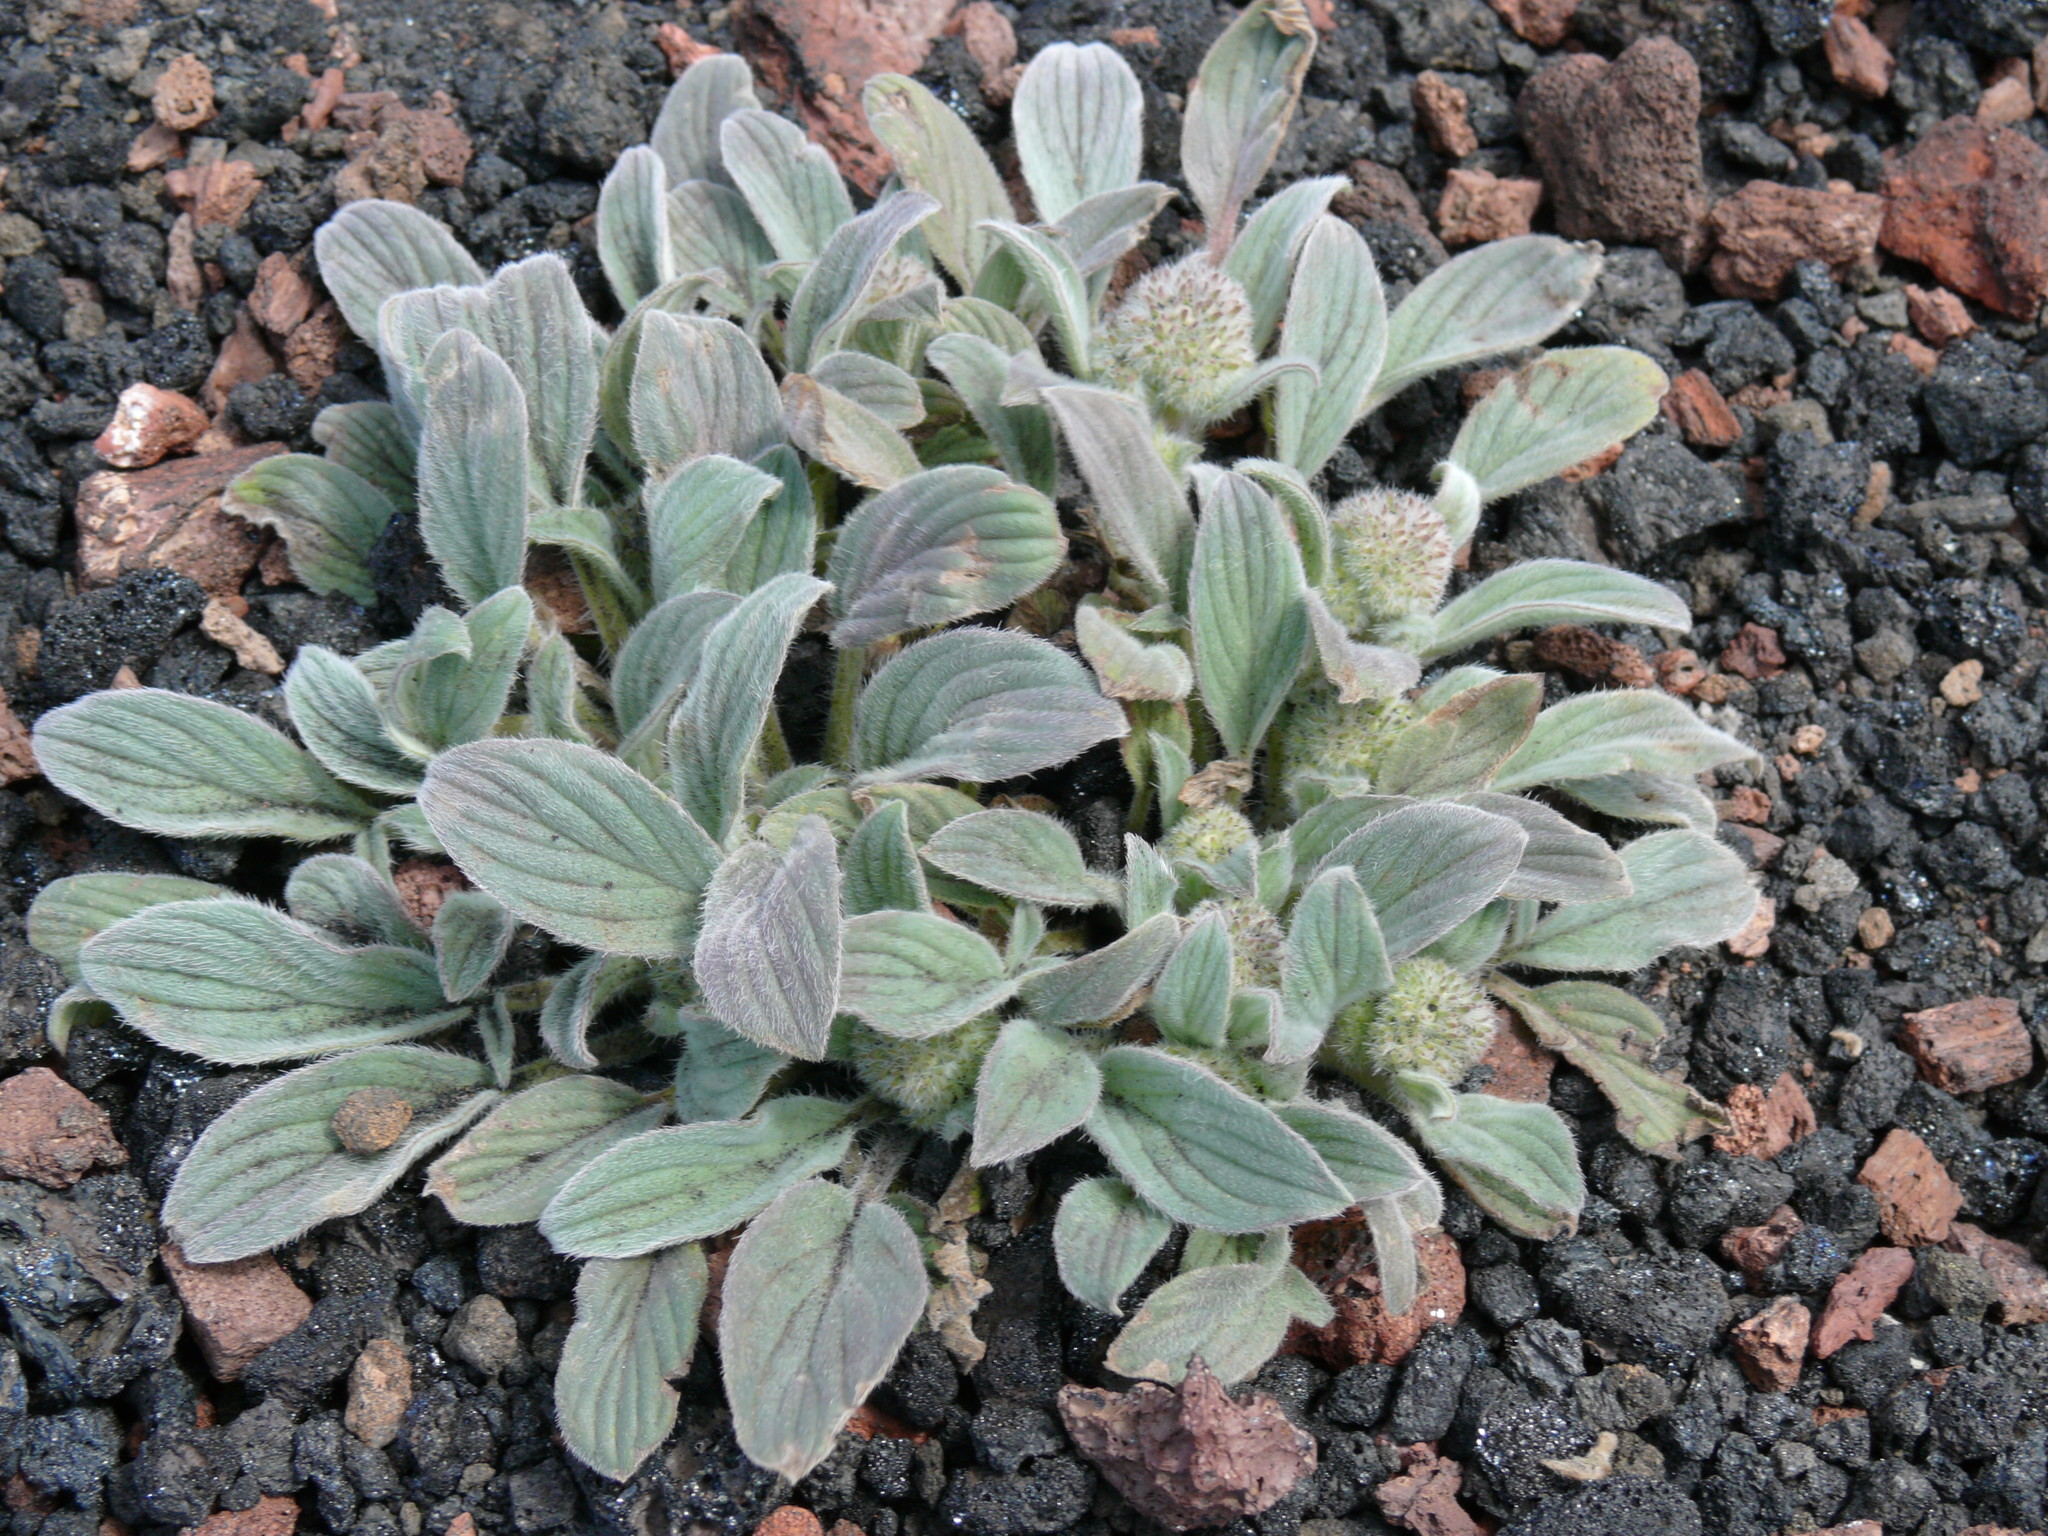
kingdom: Plantae
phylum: Tracheophyta
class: Magnoliopsida
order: Boraginales
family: Hydrophyllaceae
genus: Phacelia
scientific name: Phacelia hastata
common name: Silver-leaved phacelia
